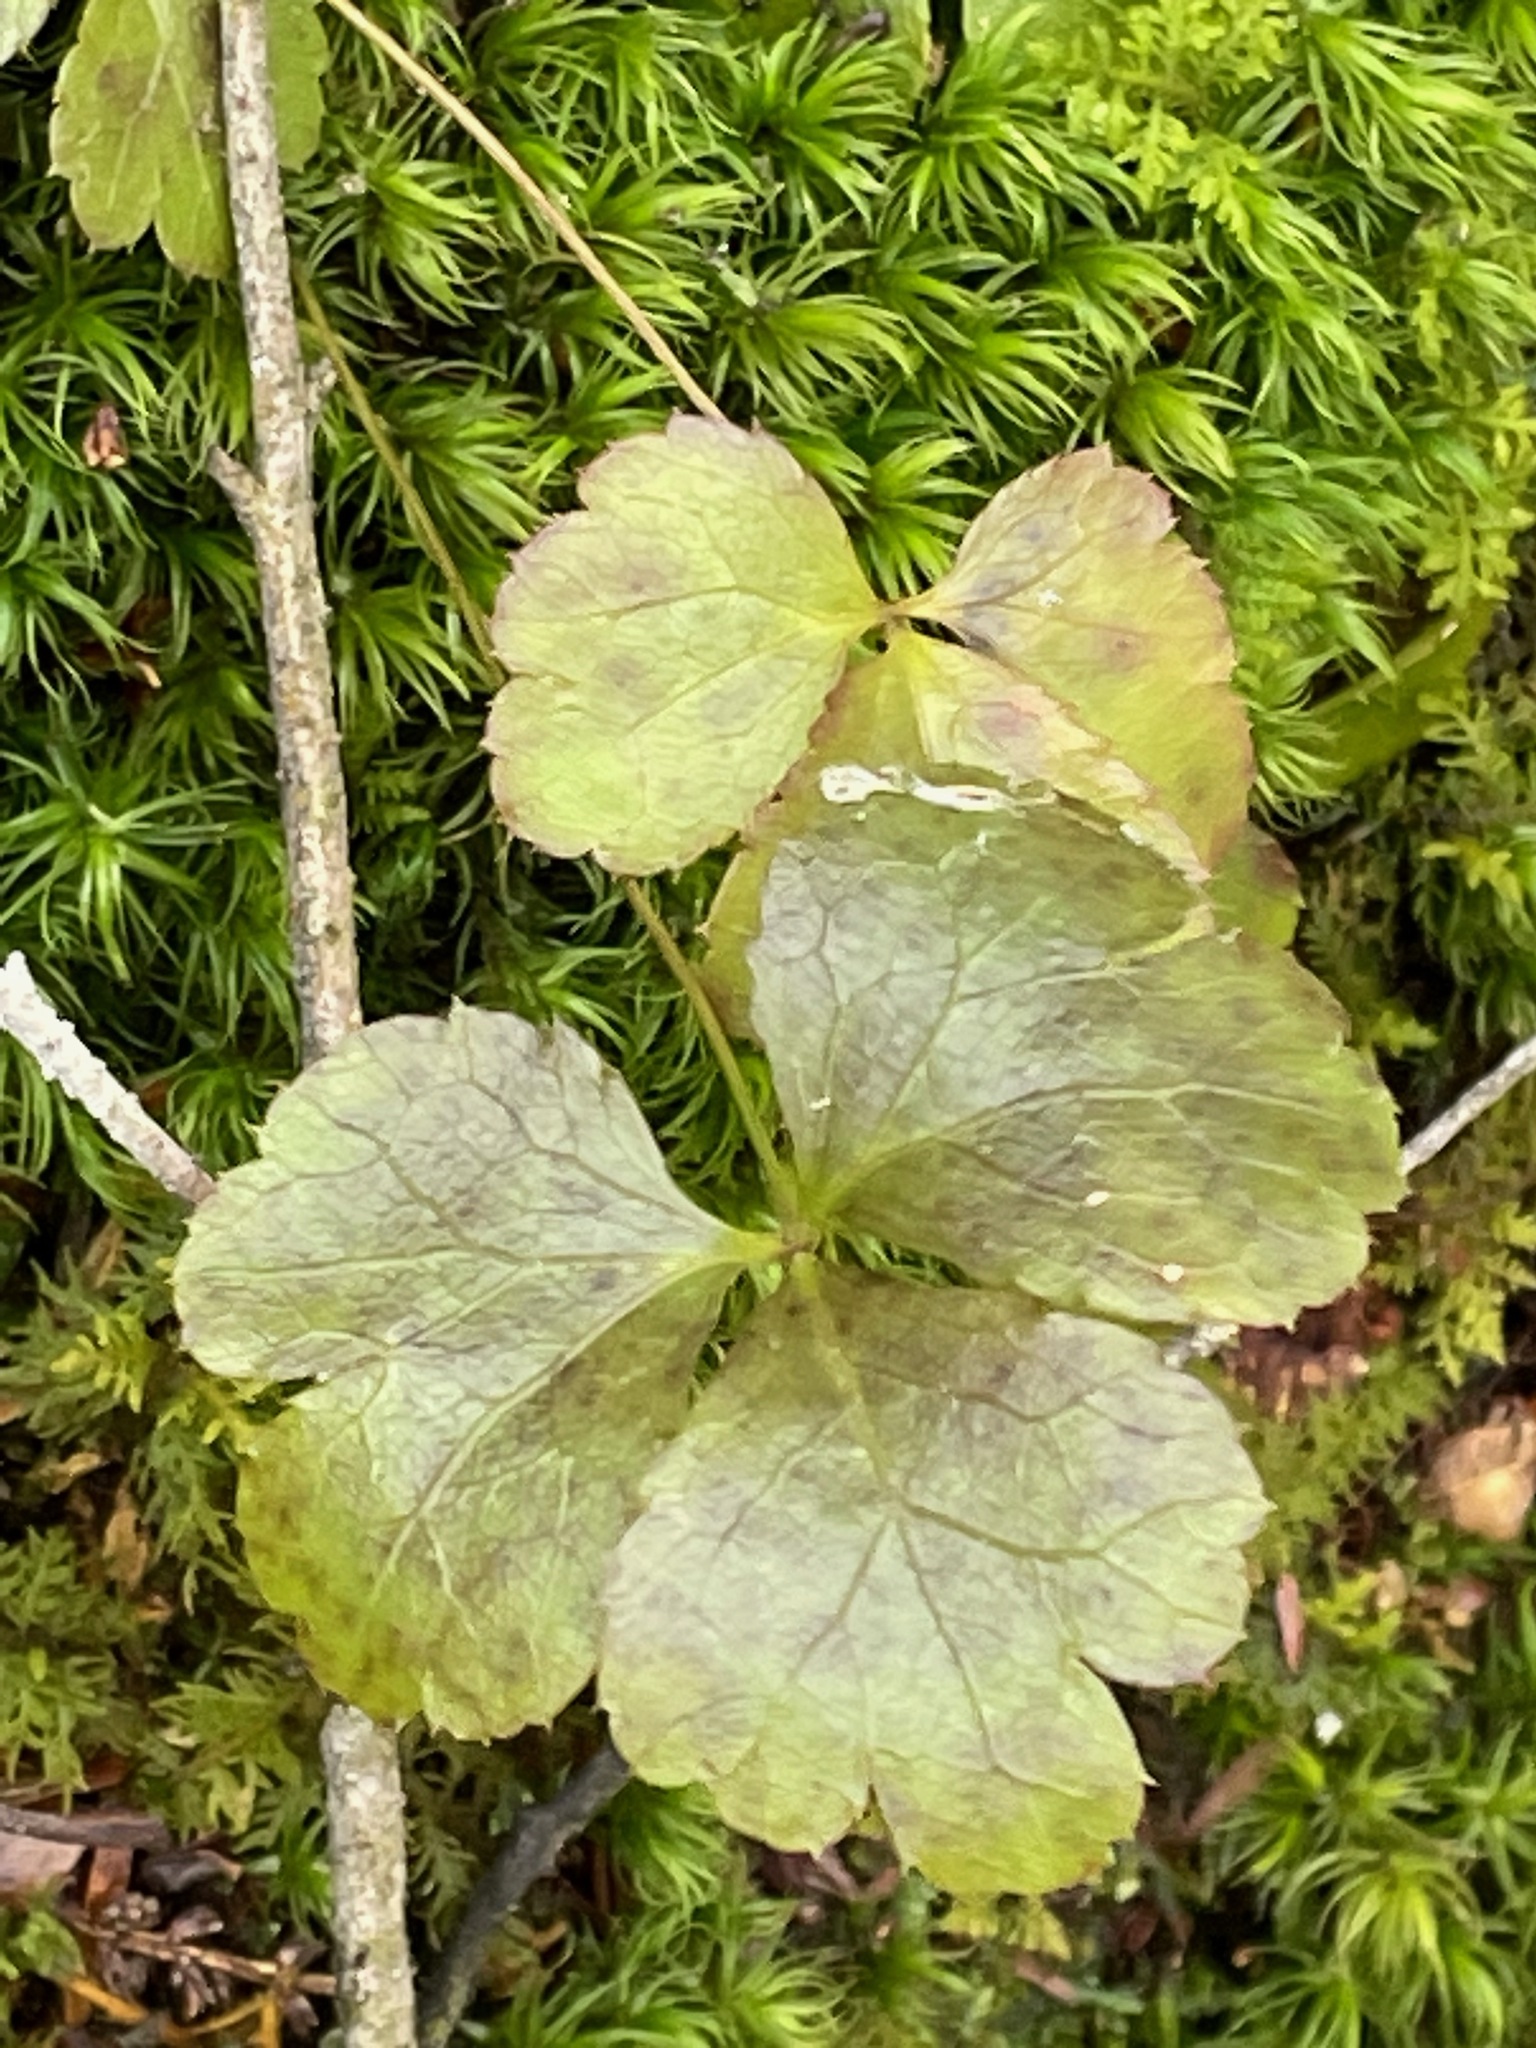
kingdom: Plantae
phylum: Tracheophyta
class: Magnoliopsida
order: Ranunculales
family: Ranunculaceae
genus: Coptis
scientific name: Coptis trifolia
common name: Canker-root
